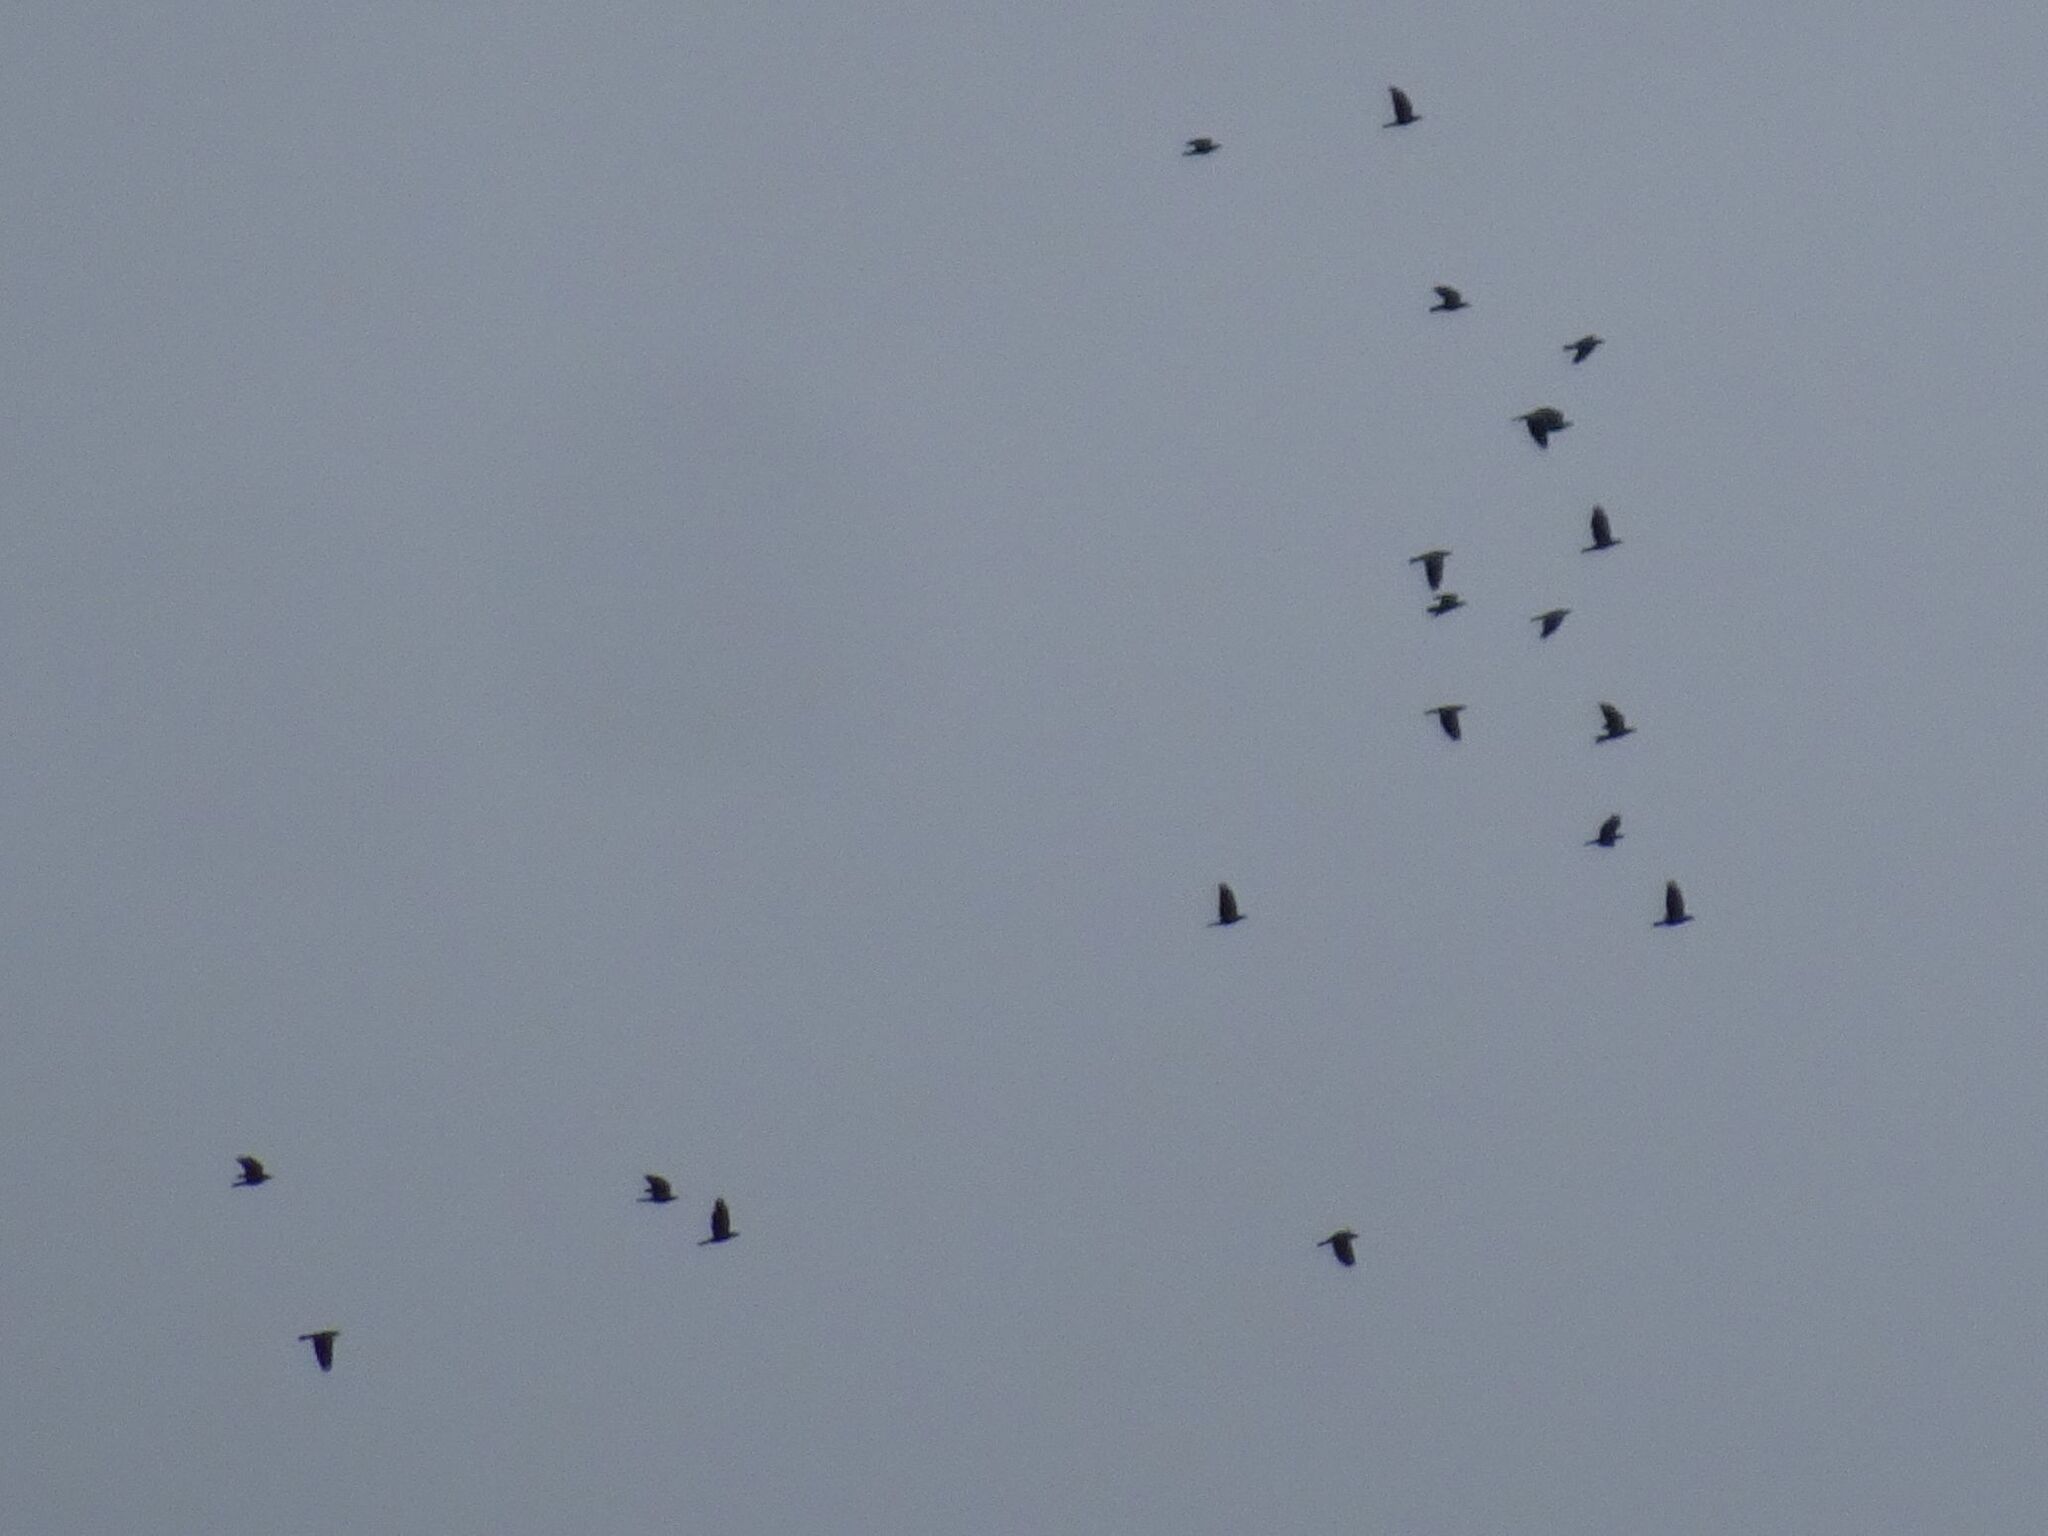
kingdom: Animalia
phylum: Chordata
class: Aves
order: Passeriformes
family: Corvidae
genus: Pyrrhocorax
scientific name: Pyrrhocorax graculus
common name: Alpine chough
